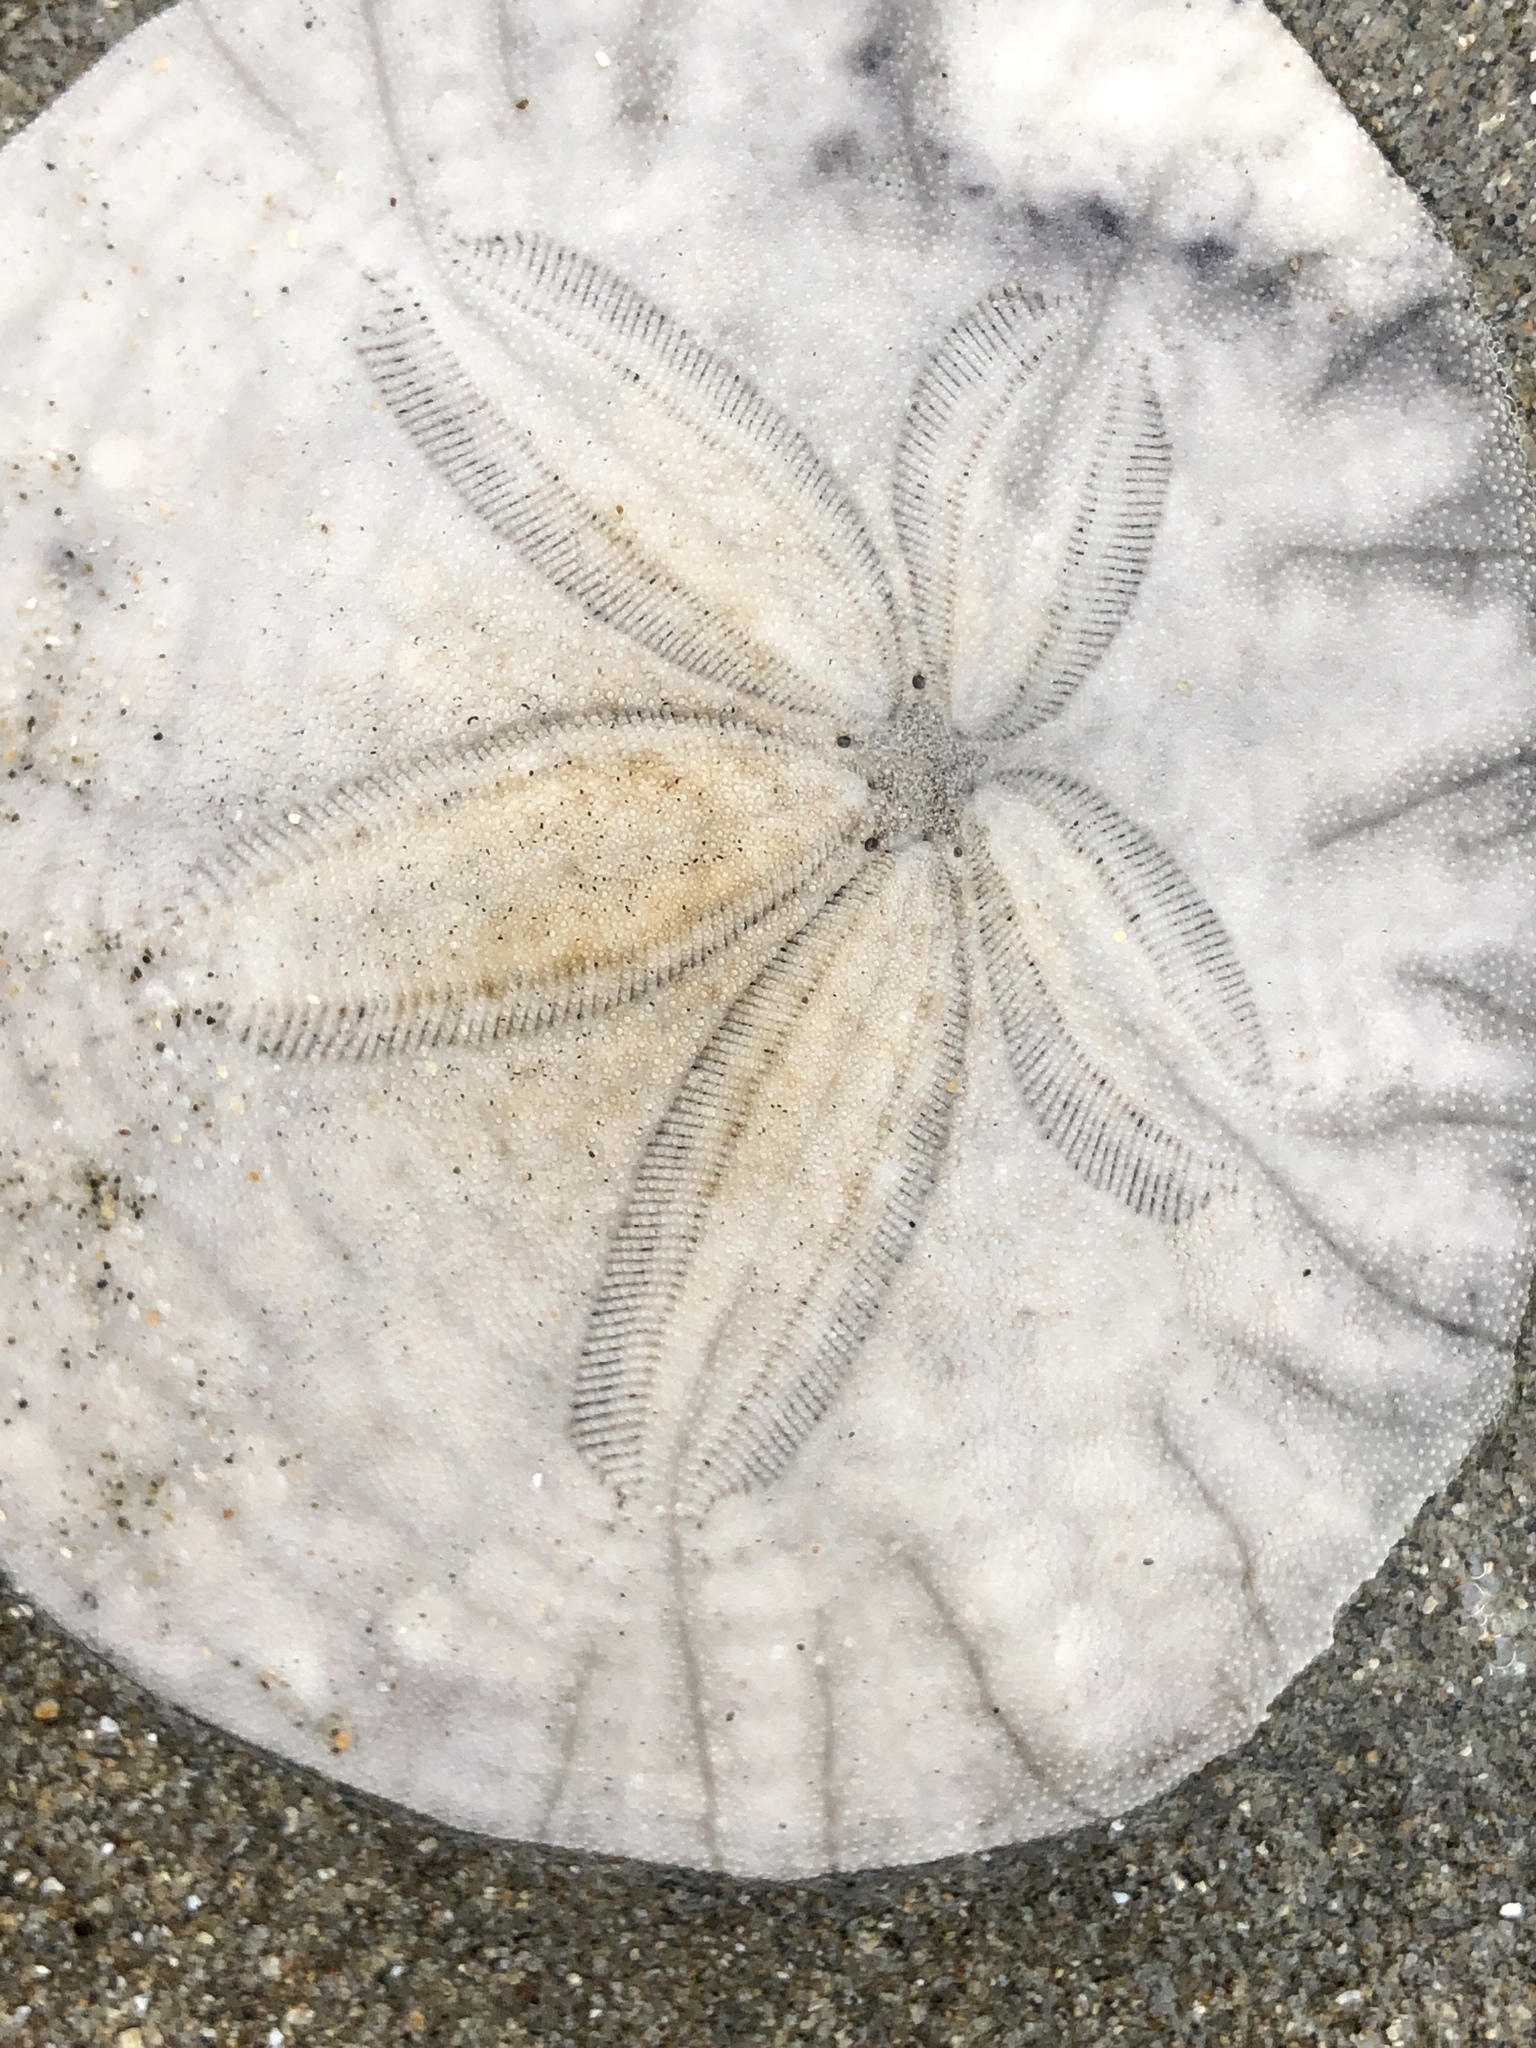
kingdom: Animalia
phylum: Echinodermata
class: Echinoidea
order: Echinolampadacea
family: Dendrasteridae
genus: Dendraster
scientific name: Dendraster excentricus
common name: Eccentric sand dollar sea urchin
